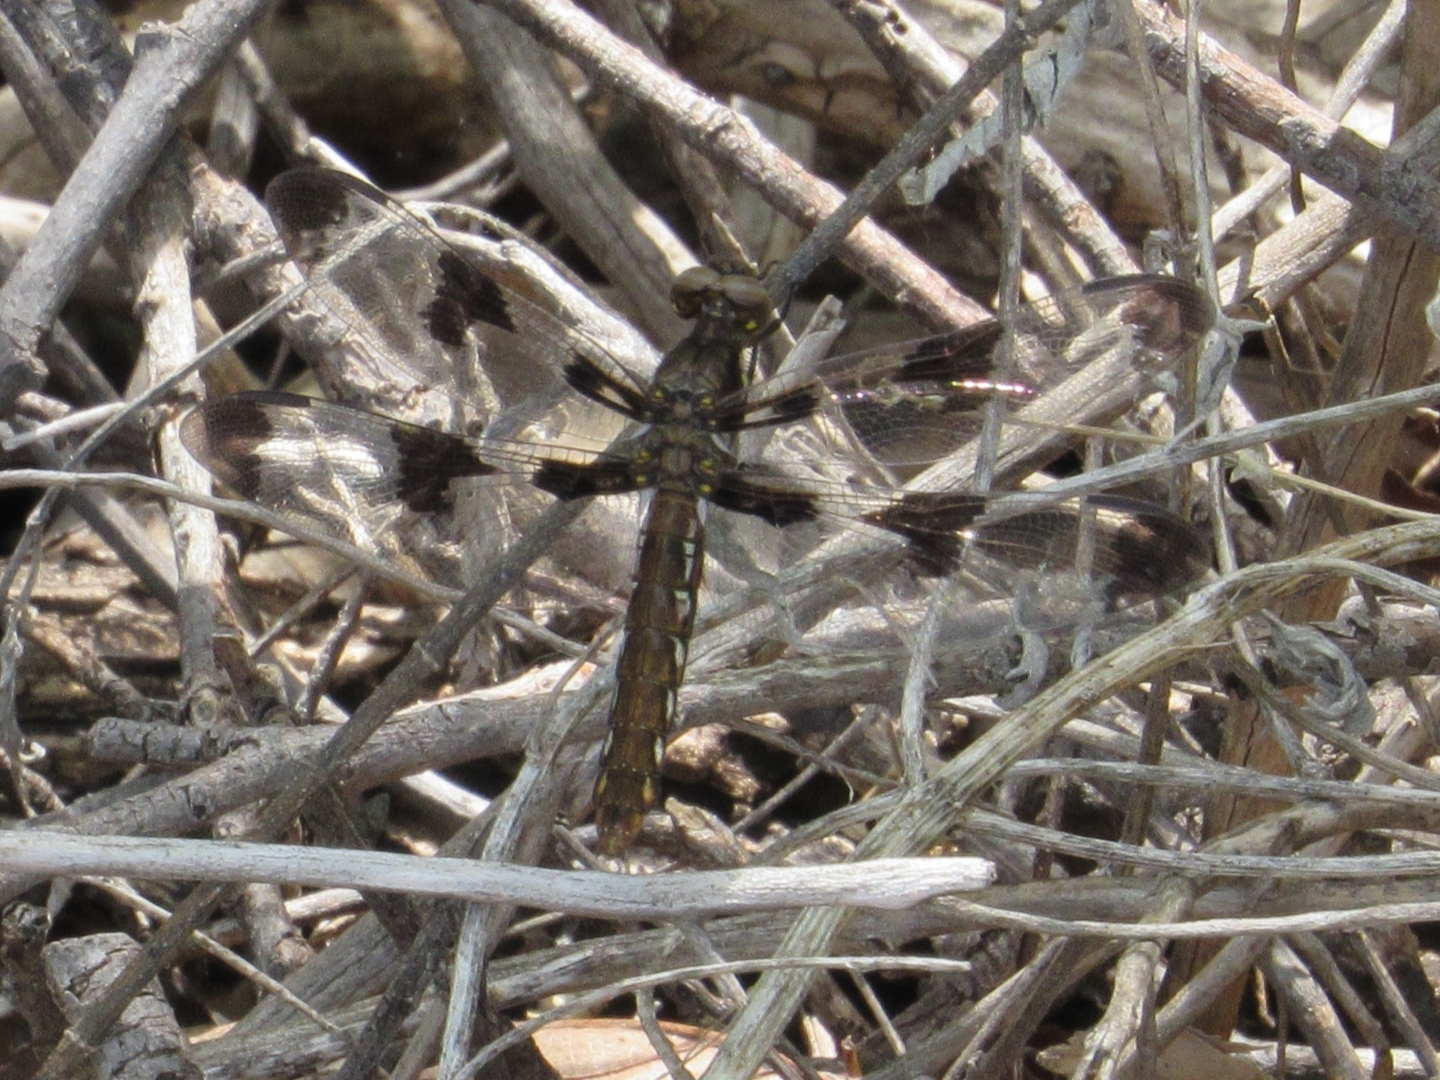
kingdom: Animalia
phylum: Arthropoda
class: Insecta
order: Odonata
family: Libellulidae
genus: Plathemis
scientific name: Plathemis lydia
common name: Common whitetail
